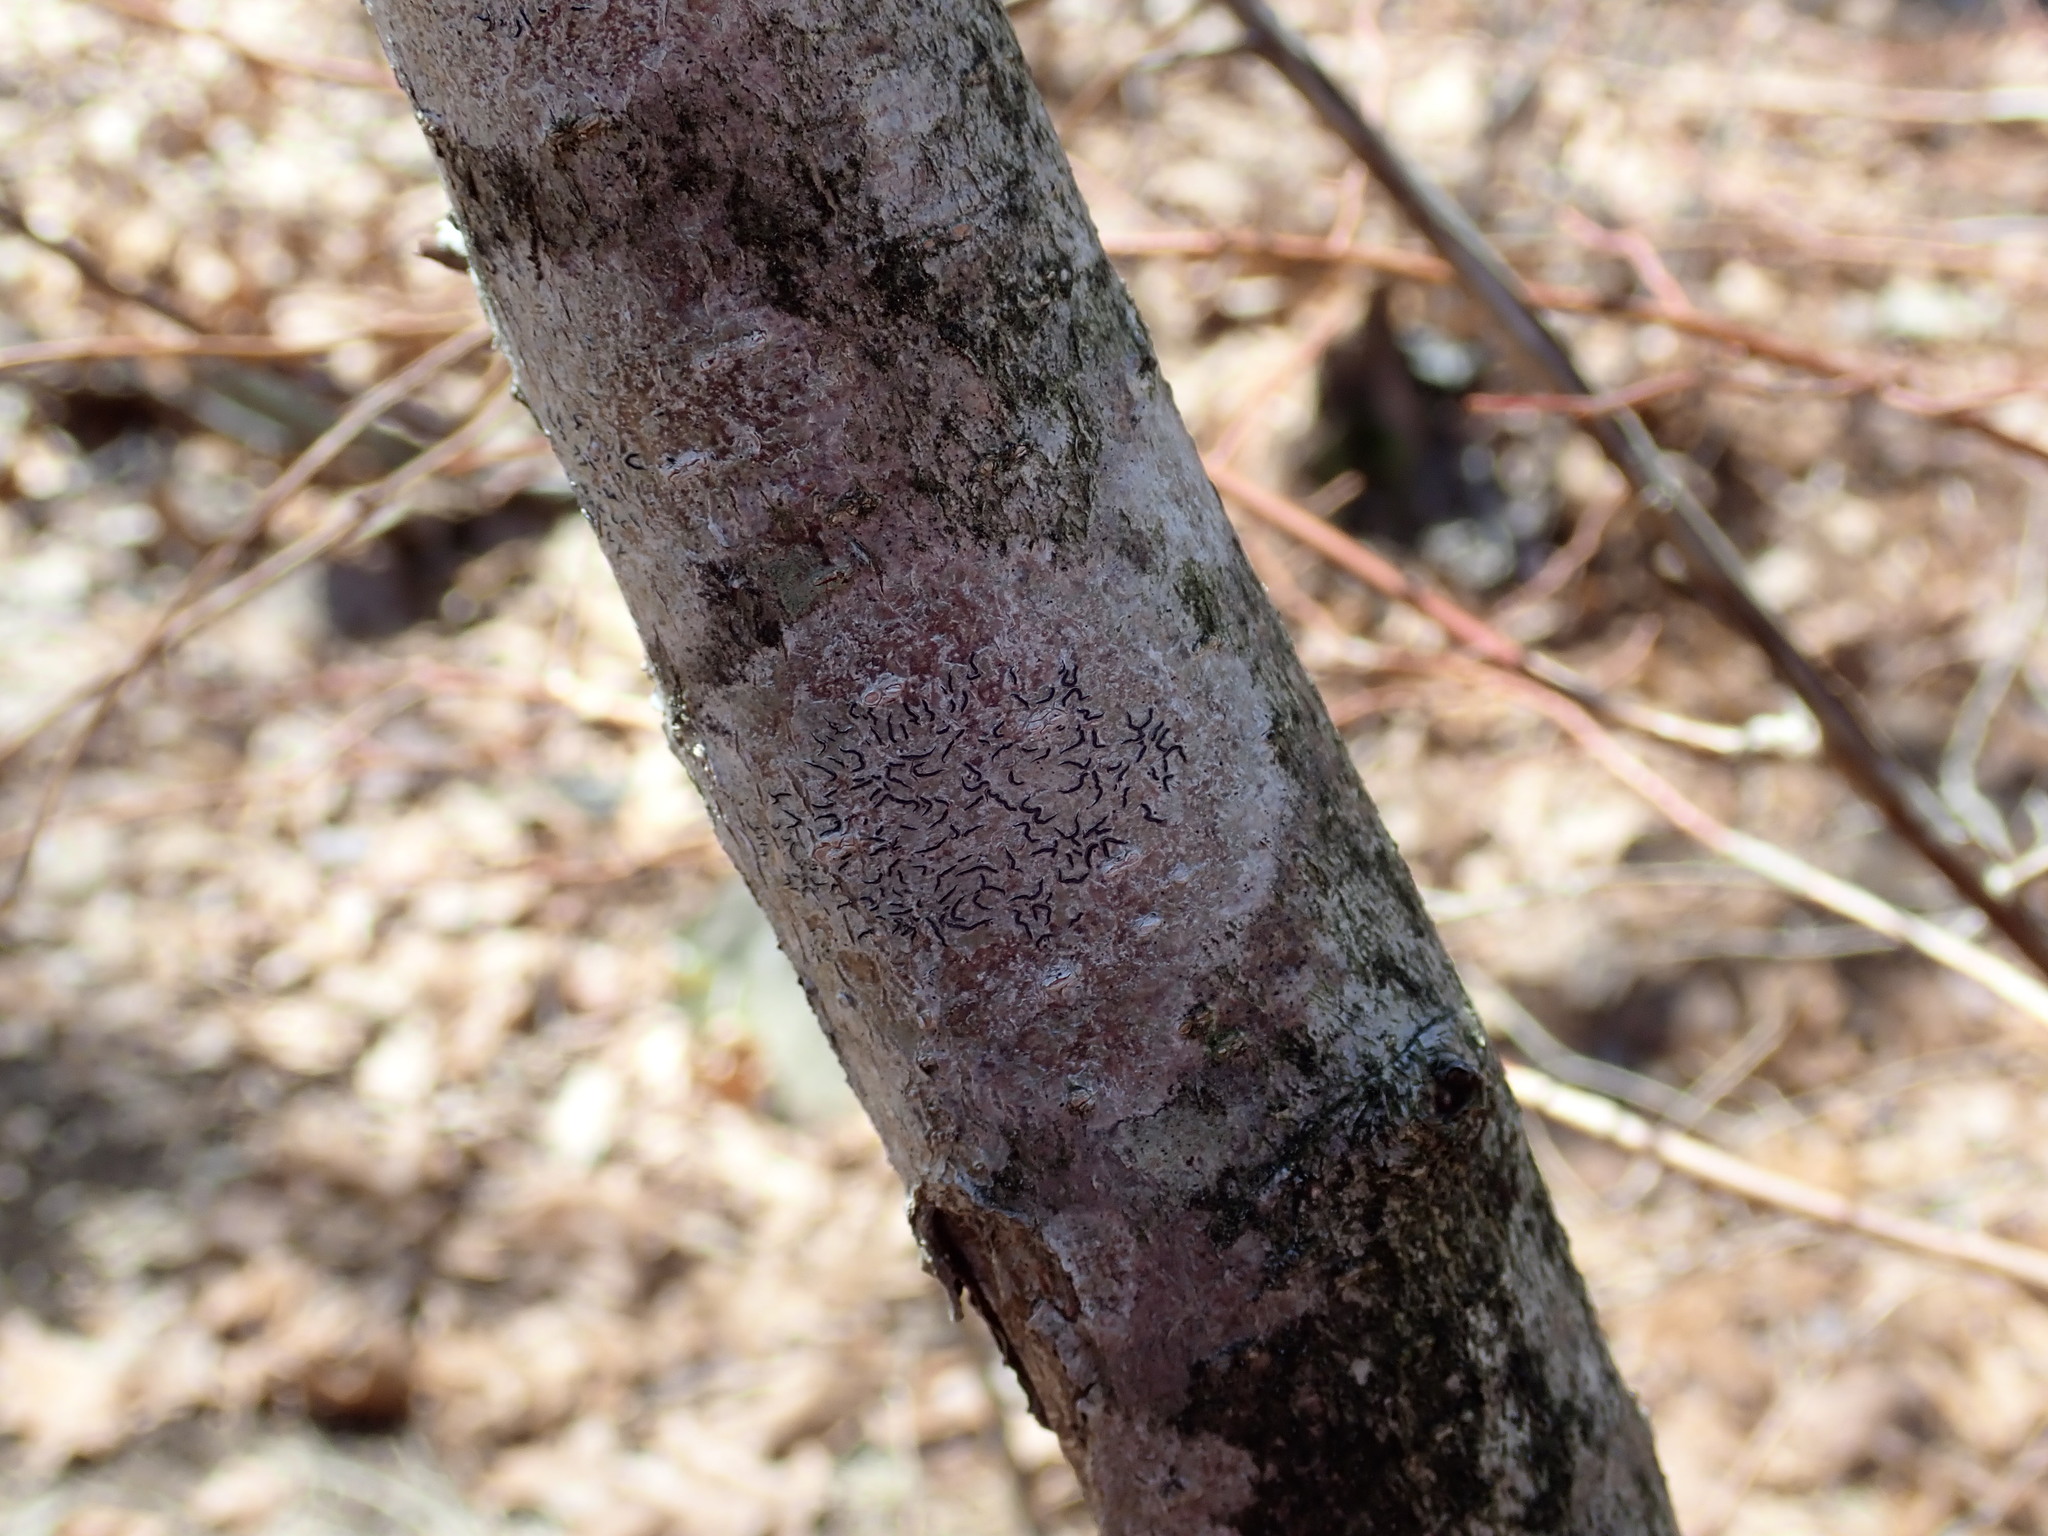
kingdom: Fungi
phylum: Ascomycota
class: Lecanoromycetes
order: Ostropales
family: Graphidaceae
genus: Graphis
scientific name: Graphis scripta
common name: Script lichen
